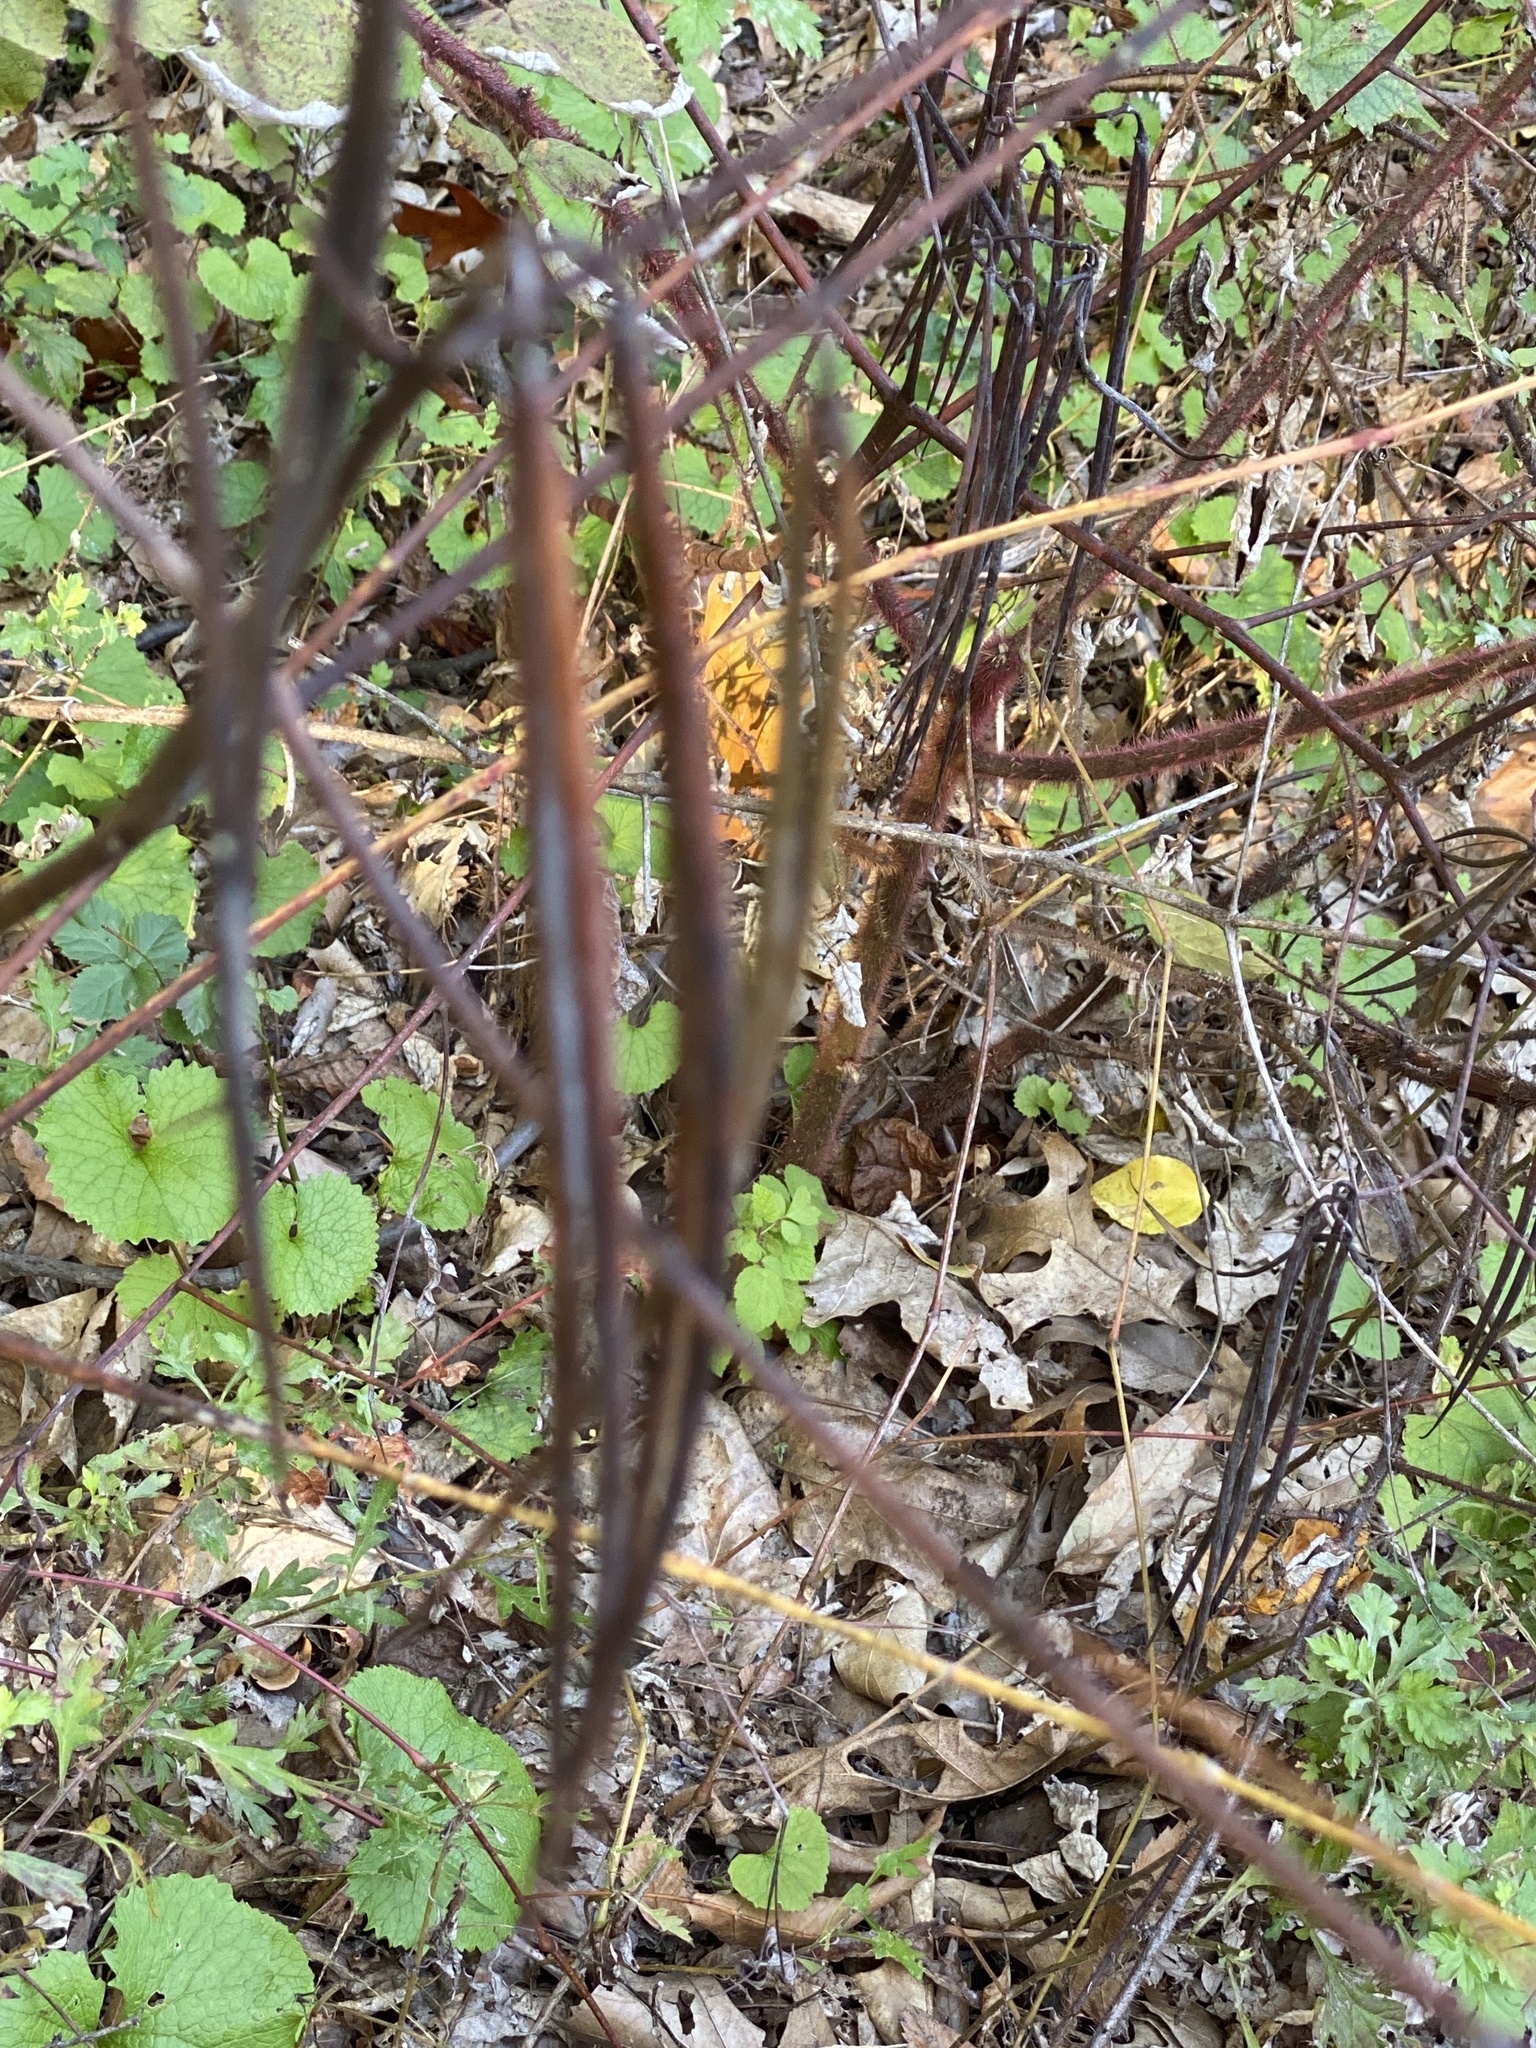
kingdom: Plantae
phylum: Tracheophyta
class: Magnoliopsida
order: Gentianales
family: Apocynaceae
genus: Apocynum
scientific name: Apocynum cannabinum
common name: Hemp dogbane
